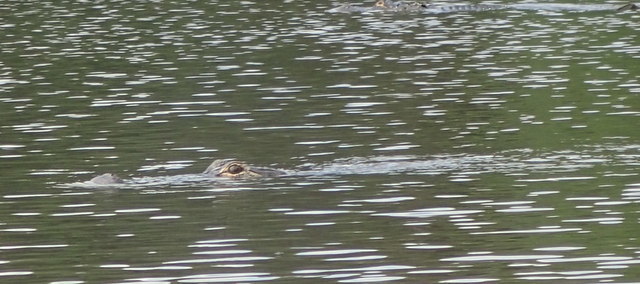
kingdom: Animalia
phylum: Chordata
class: Crocodylia
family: Alligatoridae
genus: Alligator
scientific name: Alligator mississippiensis
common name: American alligator
